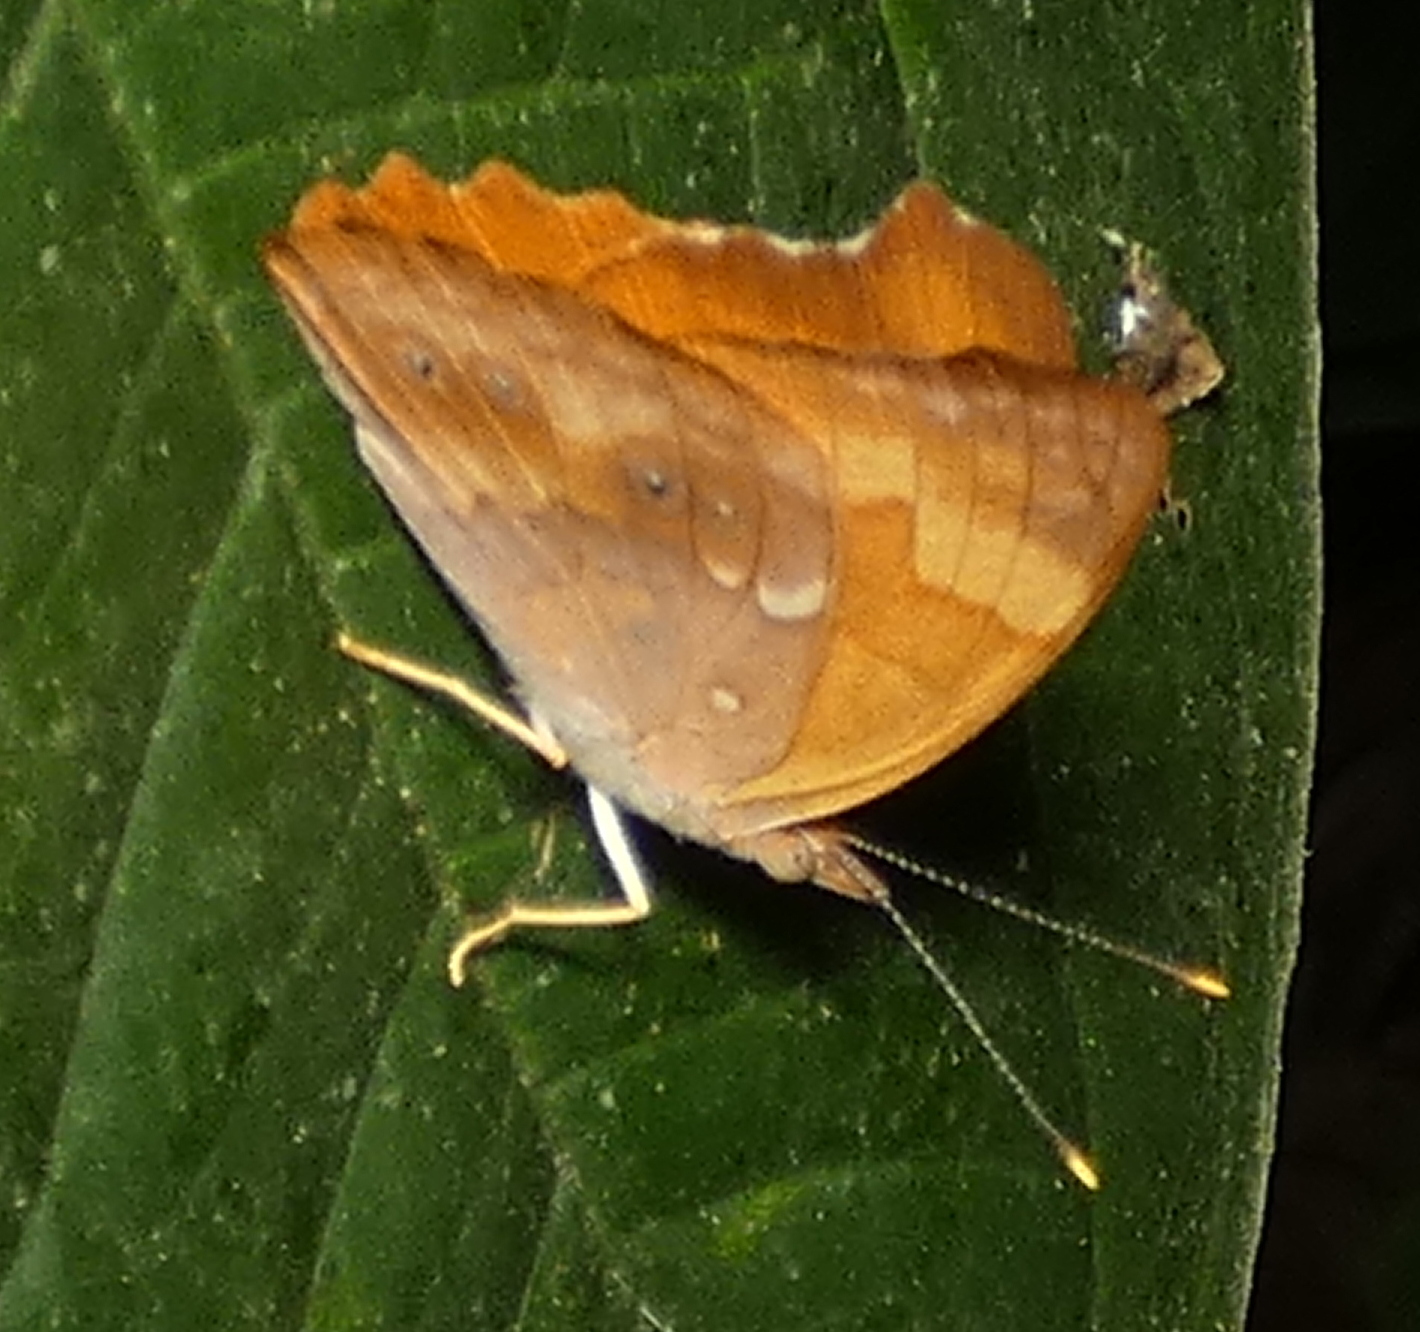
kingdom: Animalia
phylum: Arthropoda
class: Insecta
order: Lepidoptera
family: Nymphalidae
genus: Temenis
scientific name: Temenis laothoe
